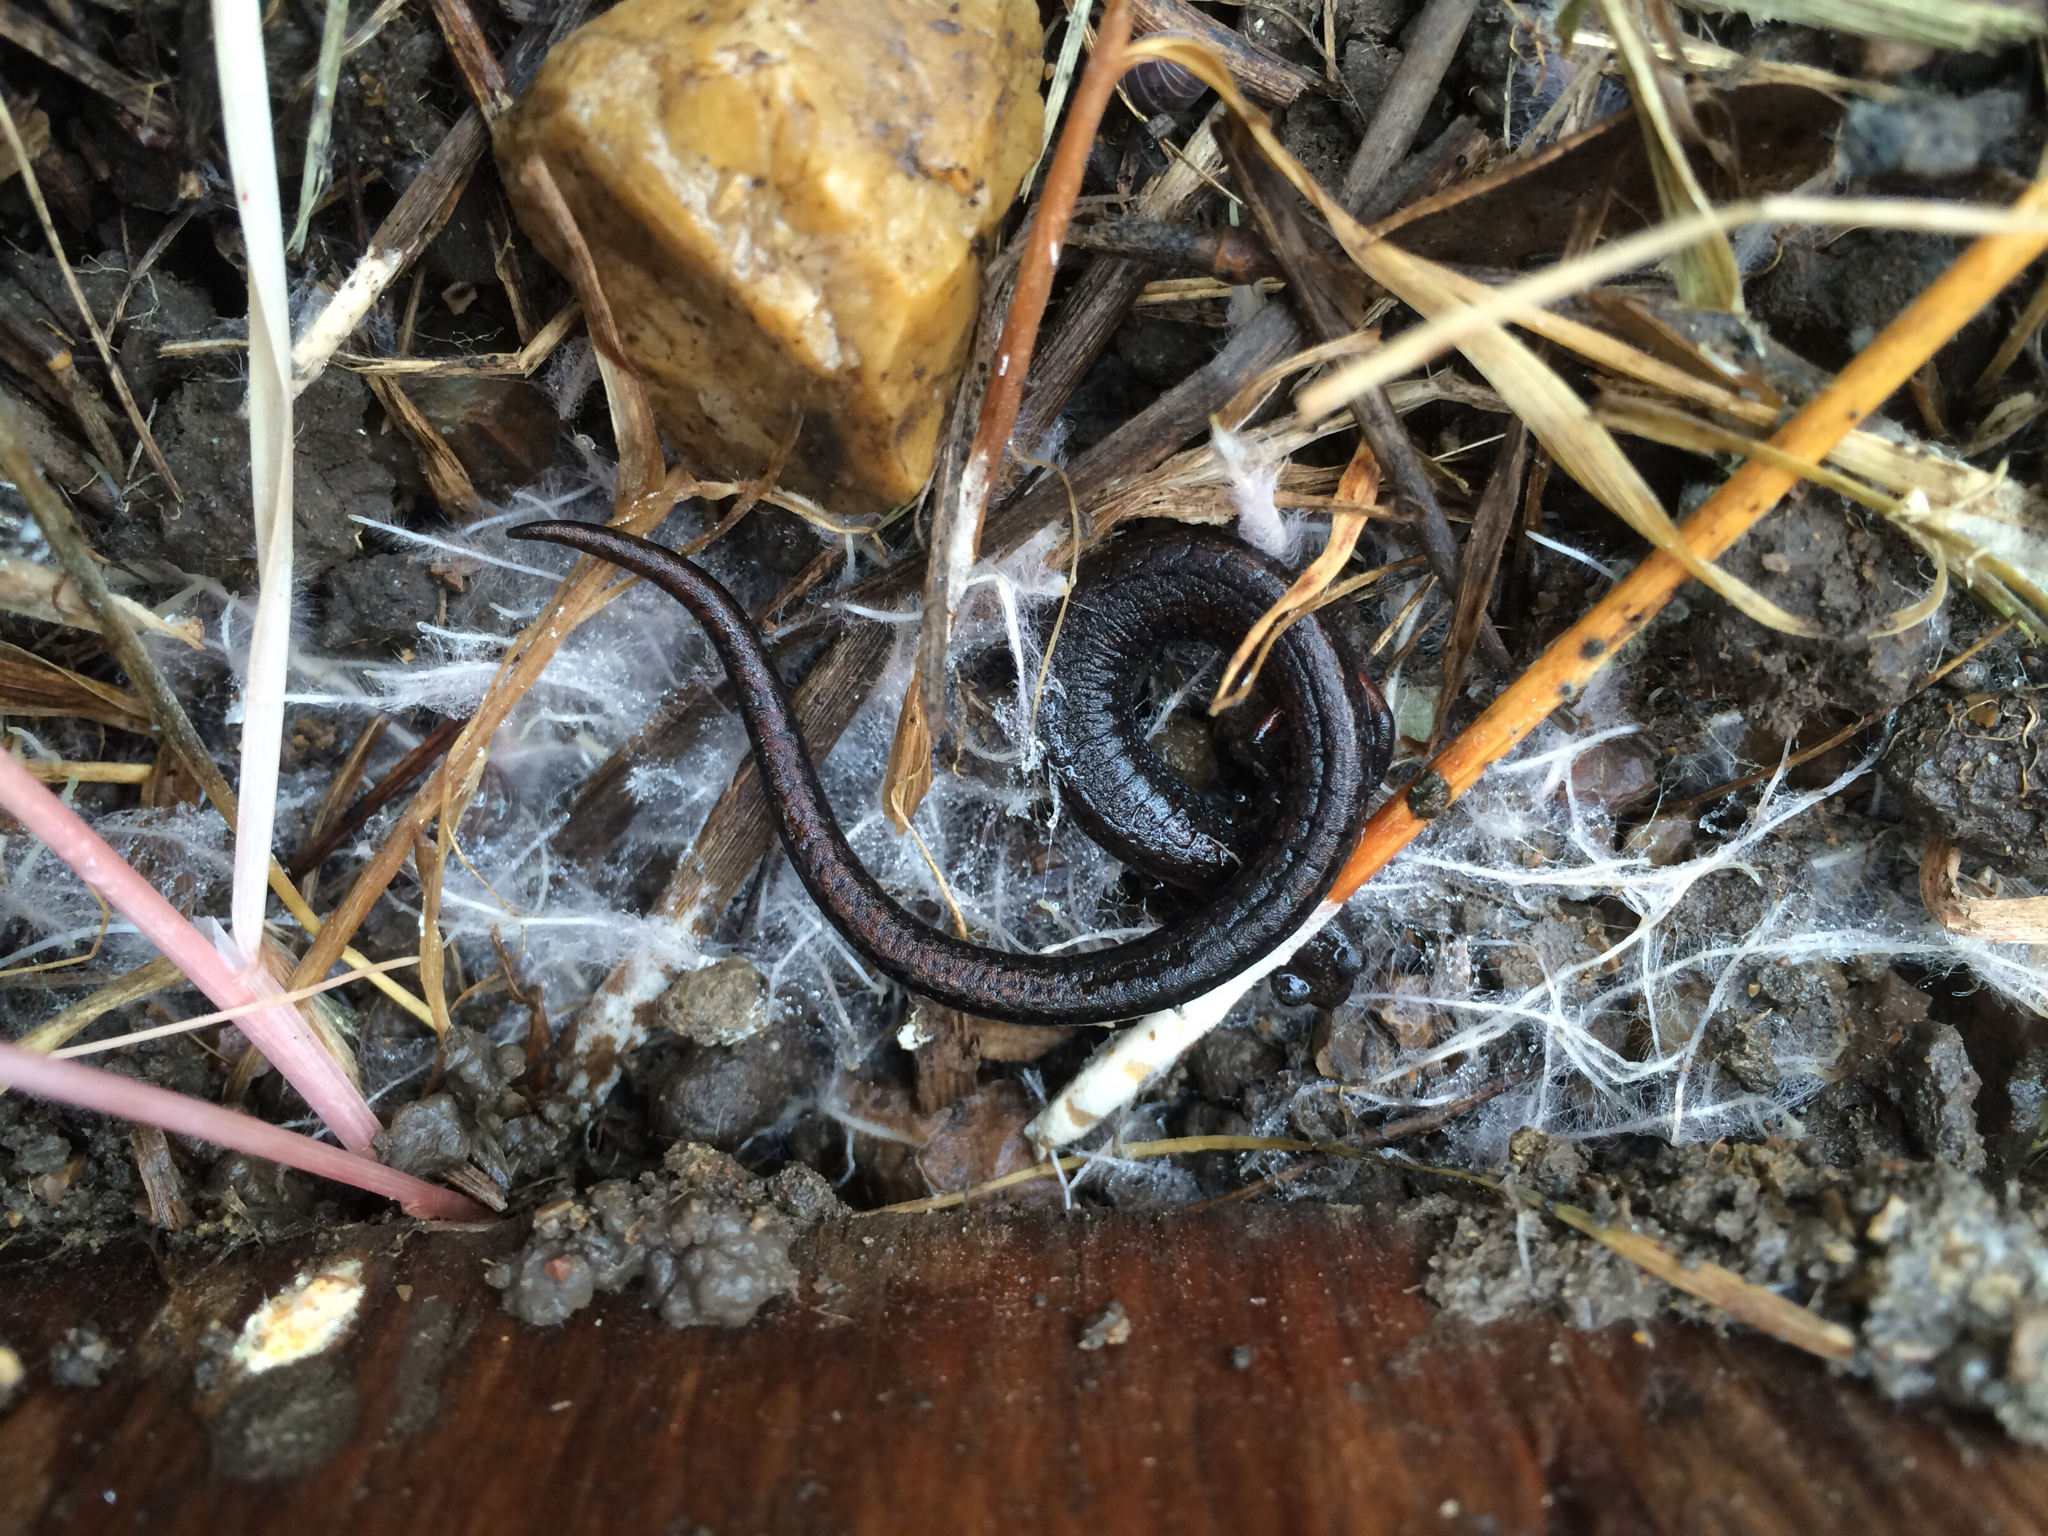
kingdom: Animalia
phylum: Chordata
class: Amphibia
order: Caudata
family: Plethodontidae
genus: Batrachoseps
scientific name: Batrachoseps attenuatus
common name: California slender salamander
